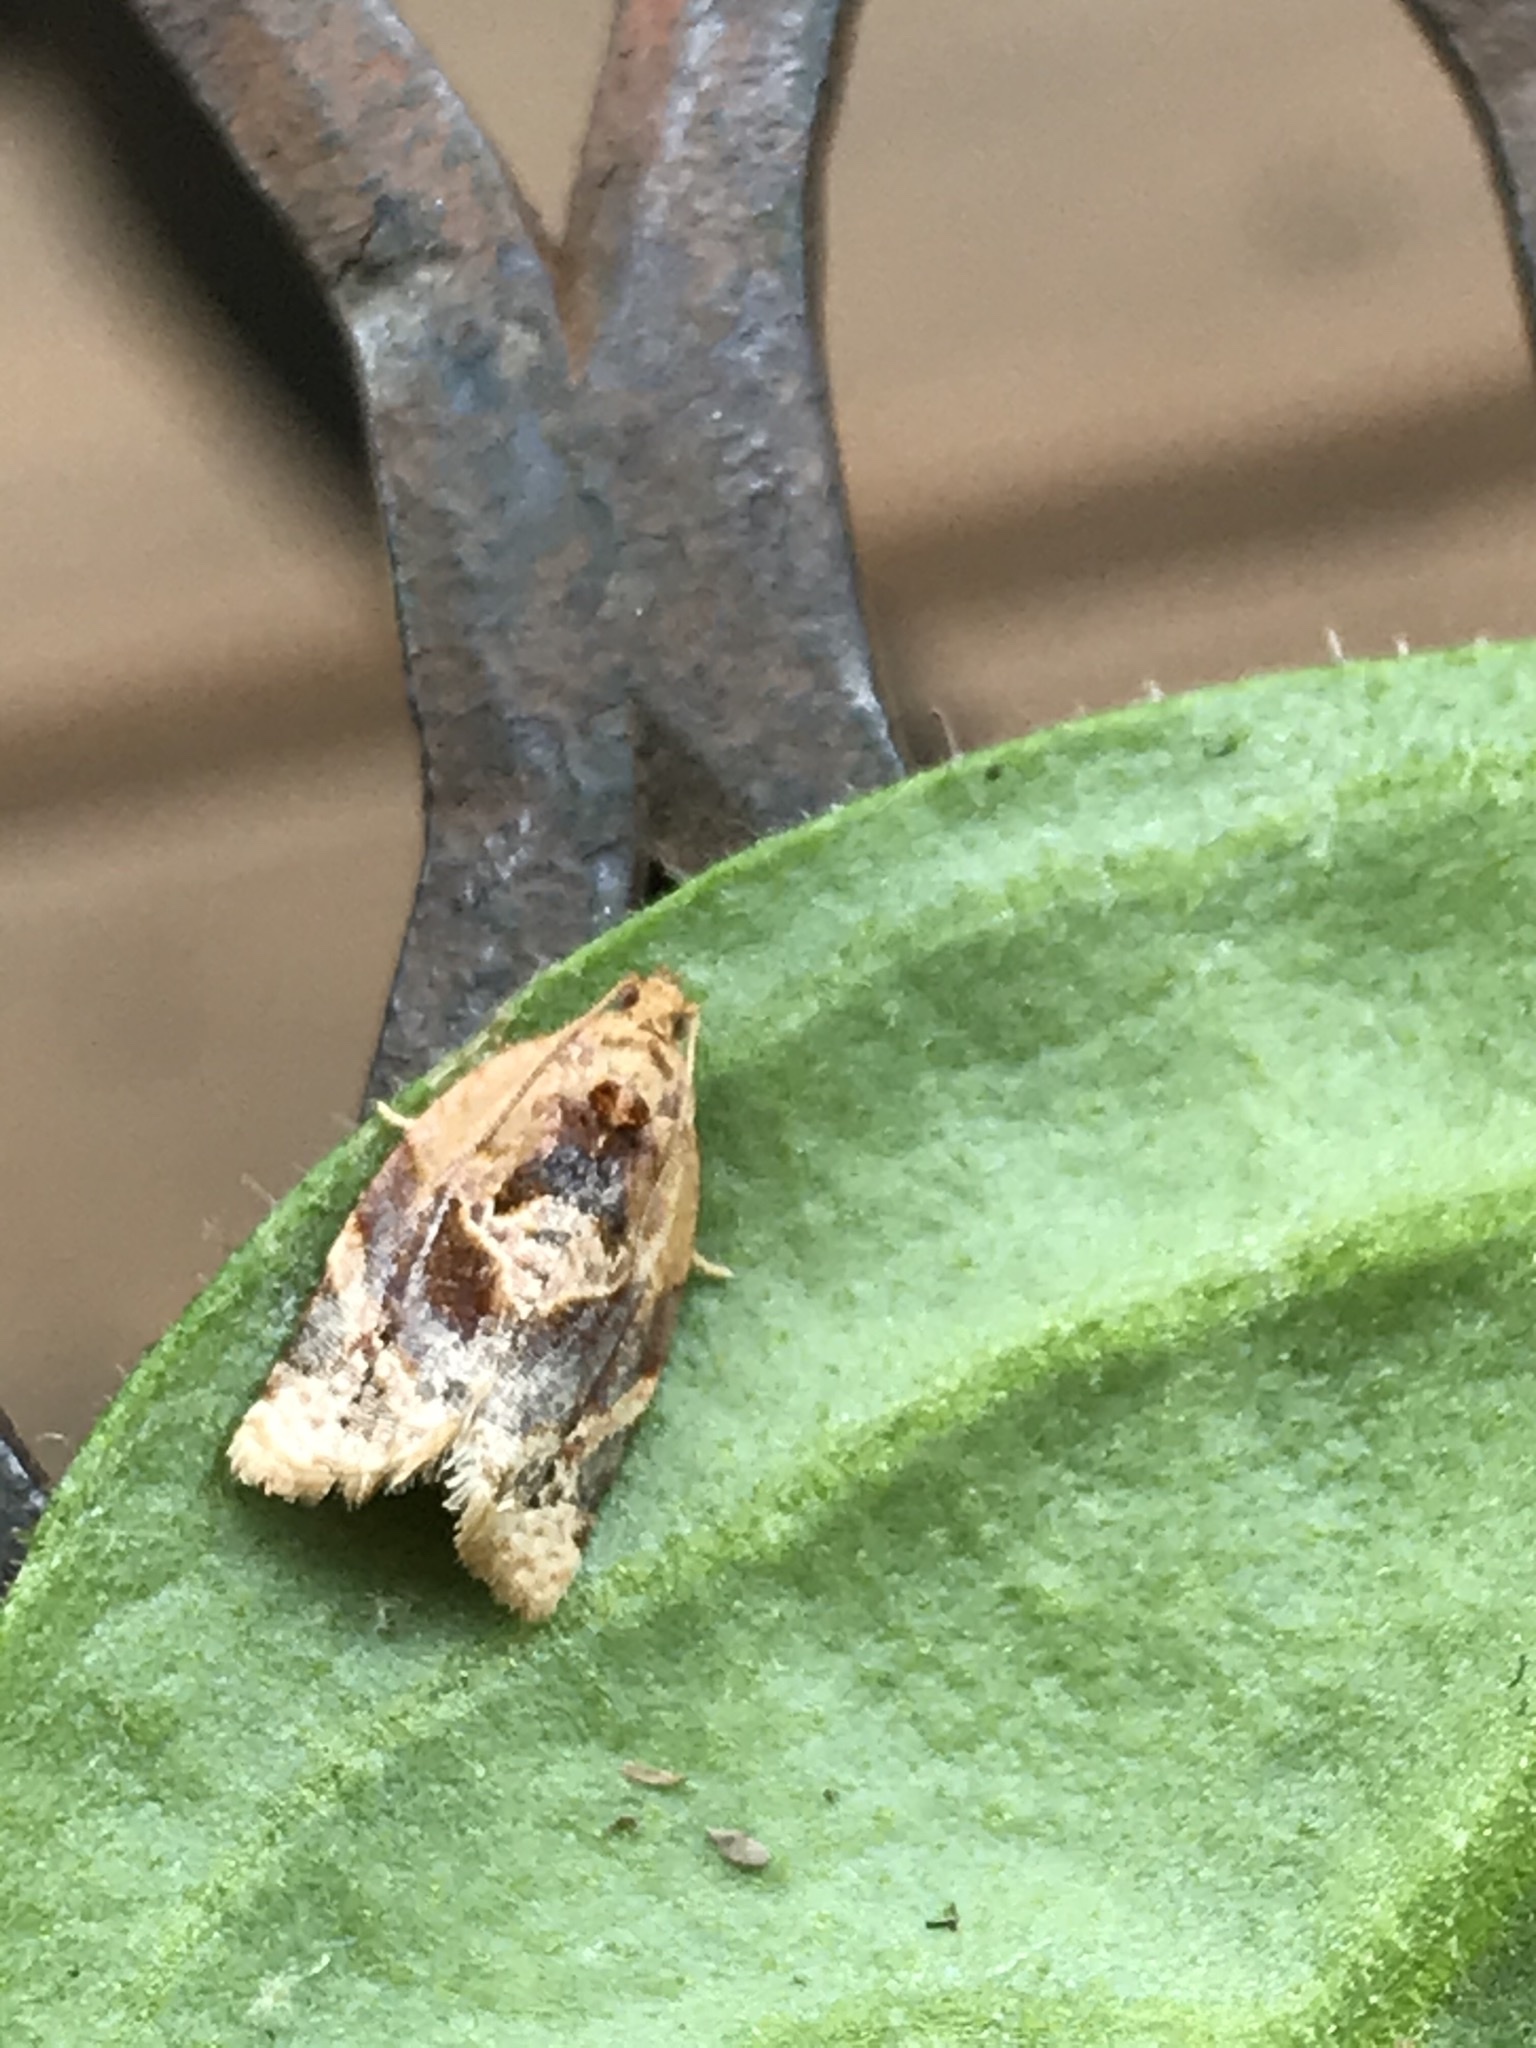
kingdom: Animalia
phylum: Arthropoda
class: Insecta
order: Lepidoptera
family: Tortricidae
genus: Argyrotaenia
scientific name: Argyrotaenia velutinana
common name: Red-banded leafroller moth
